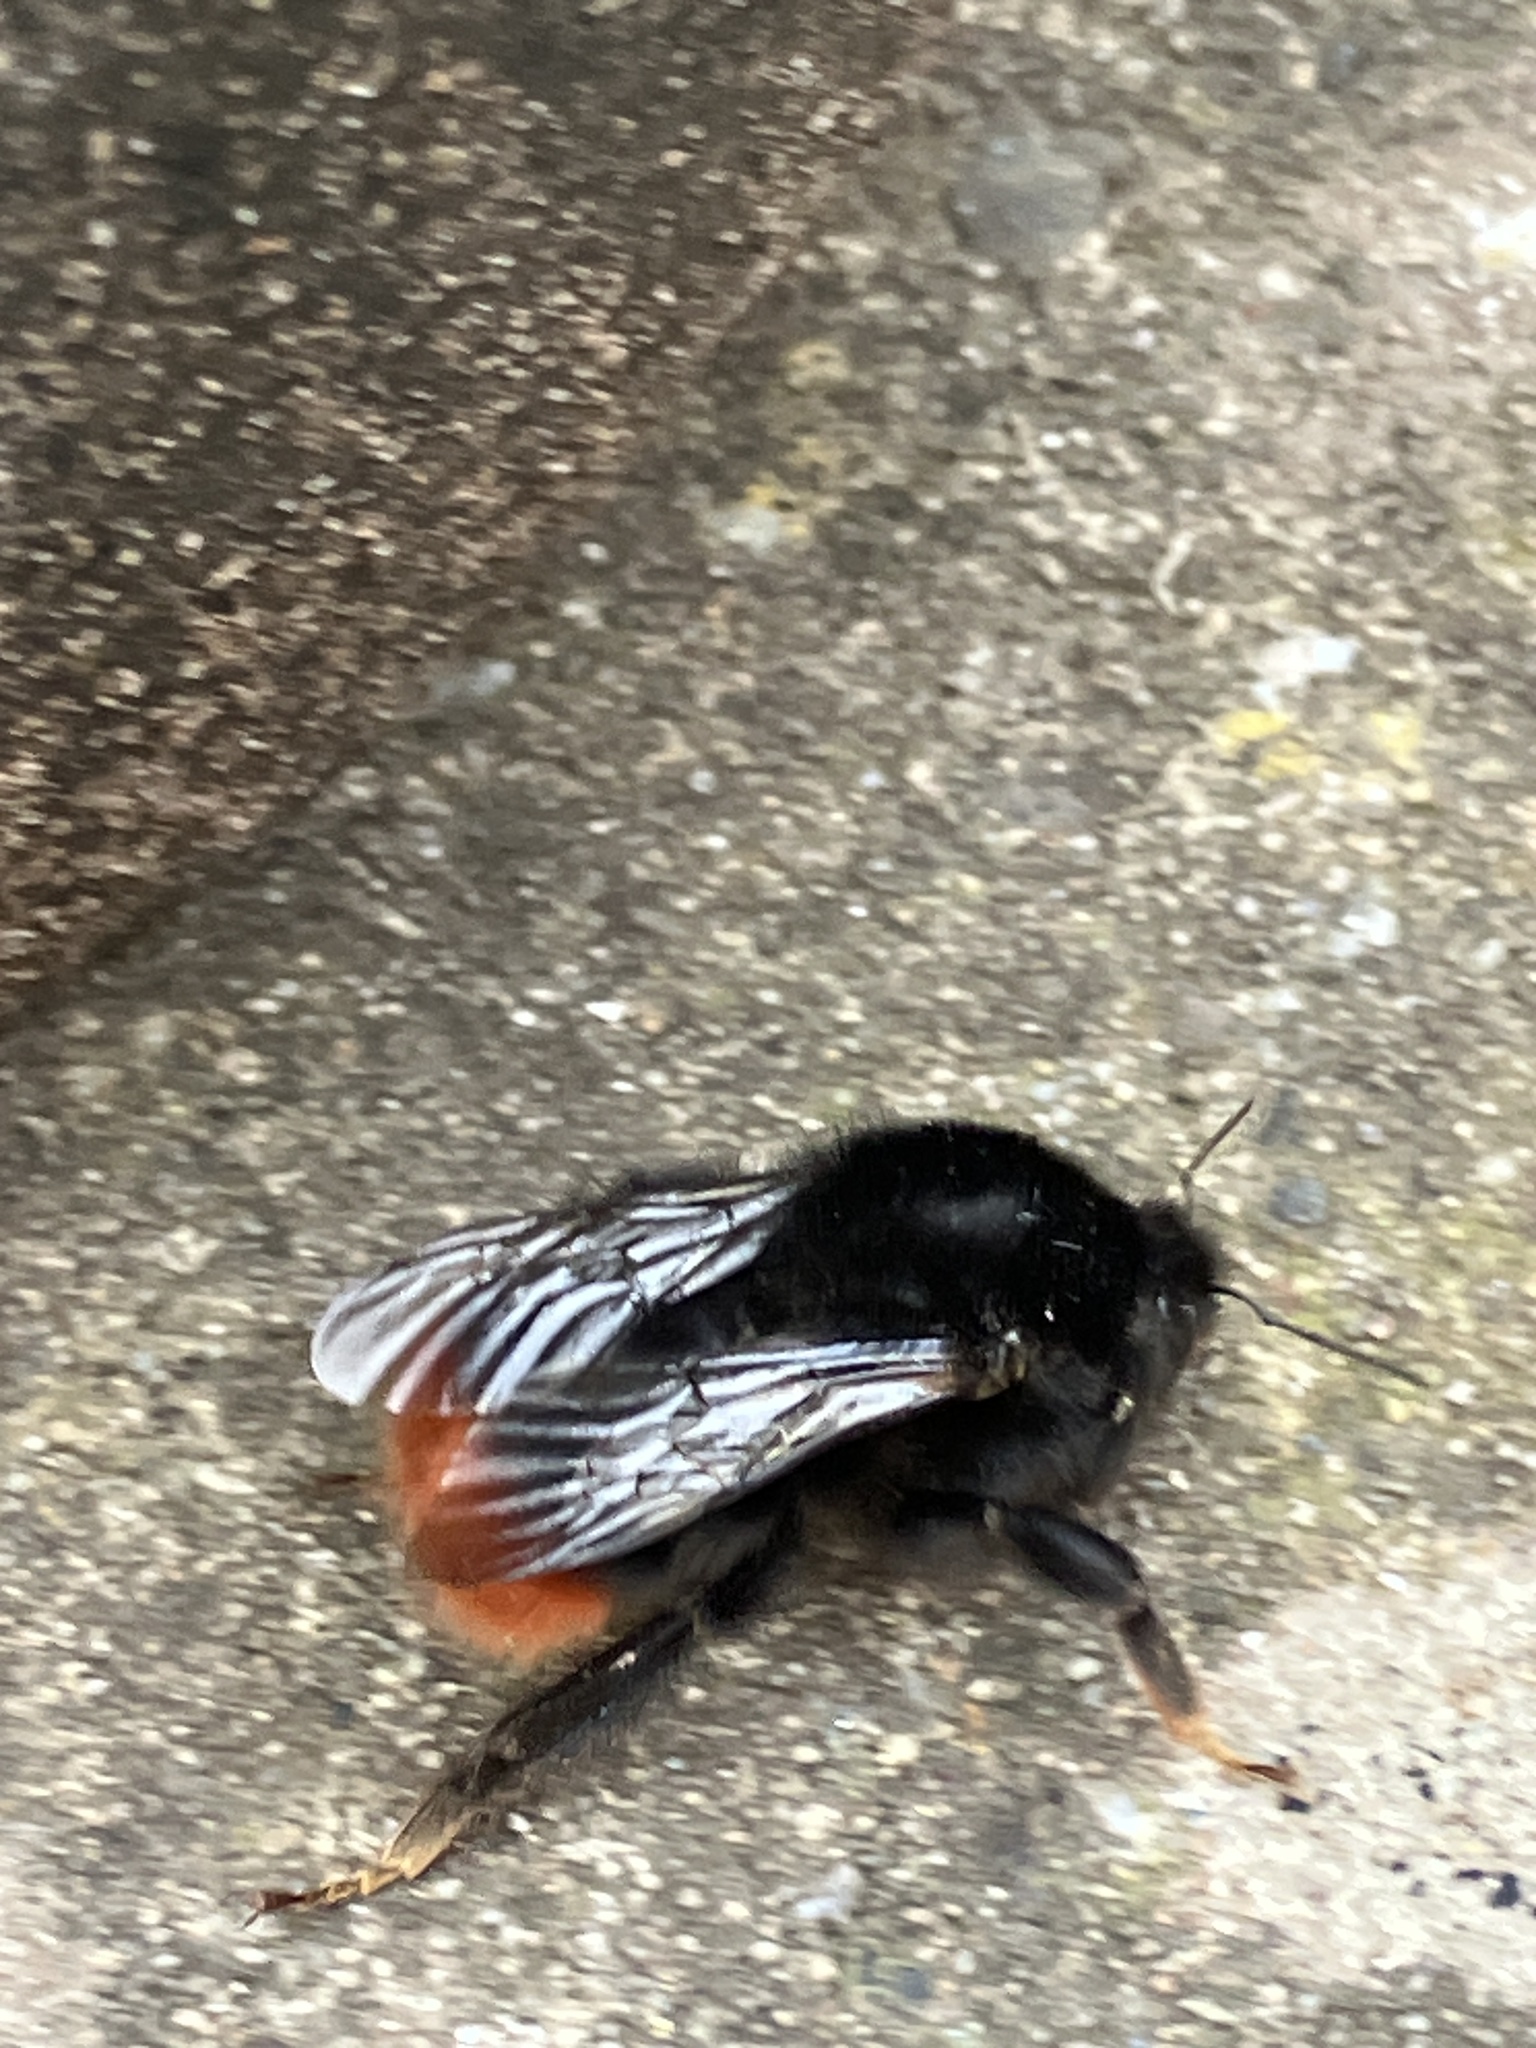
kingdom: Animalia
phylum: Arthropoda
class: Insecta
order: Hymenoptera
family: Apidae
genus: Bombus
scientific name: Bombus lapidarius
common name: Large red-tailed humble-bee
